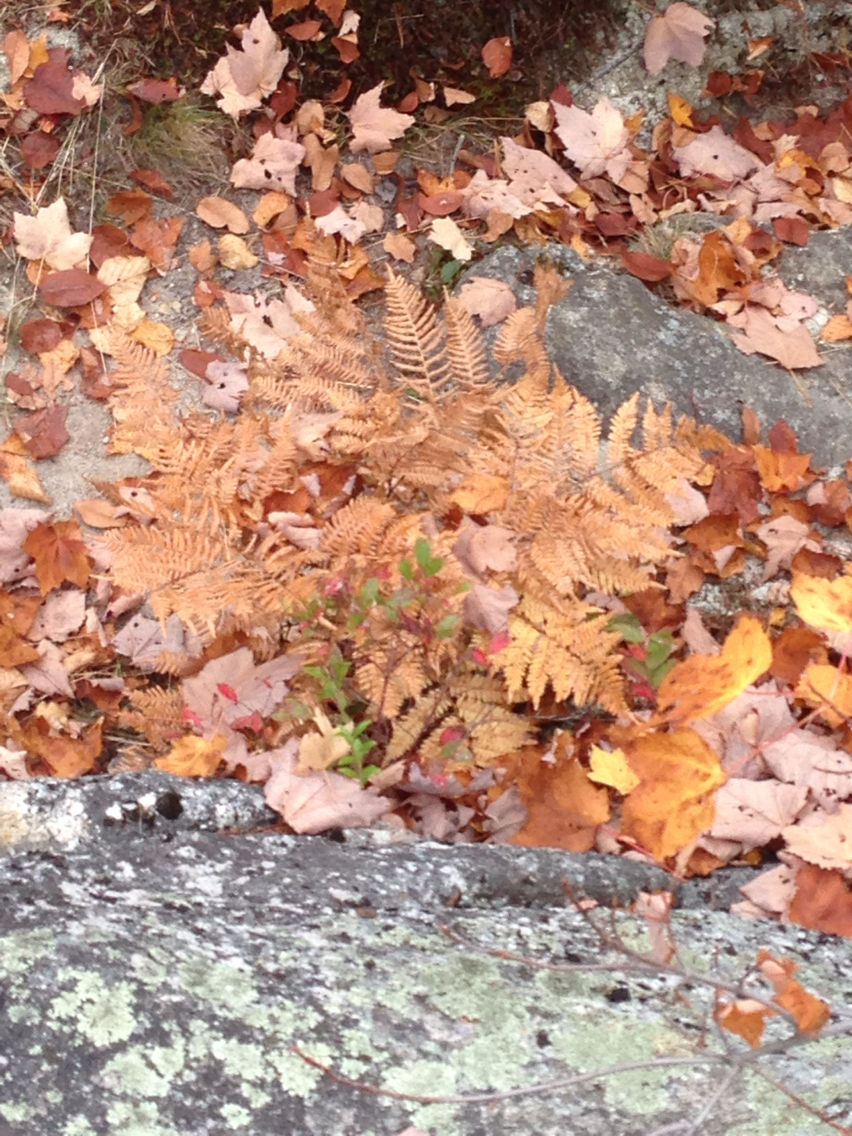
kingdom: Plantae
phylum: Tracheophyta
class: Polypodiopsida
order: Polypodiales
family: Dennstaedtiaceae
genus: Pteridium
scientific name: Pteridium aquilinum
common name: Bracken
